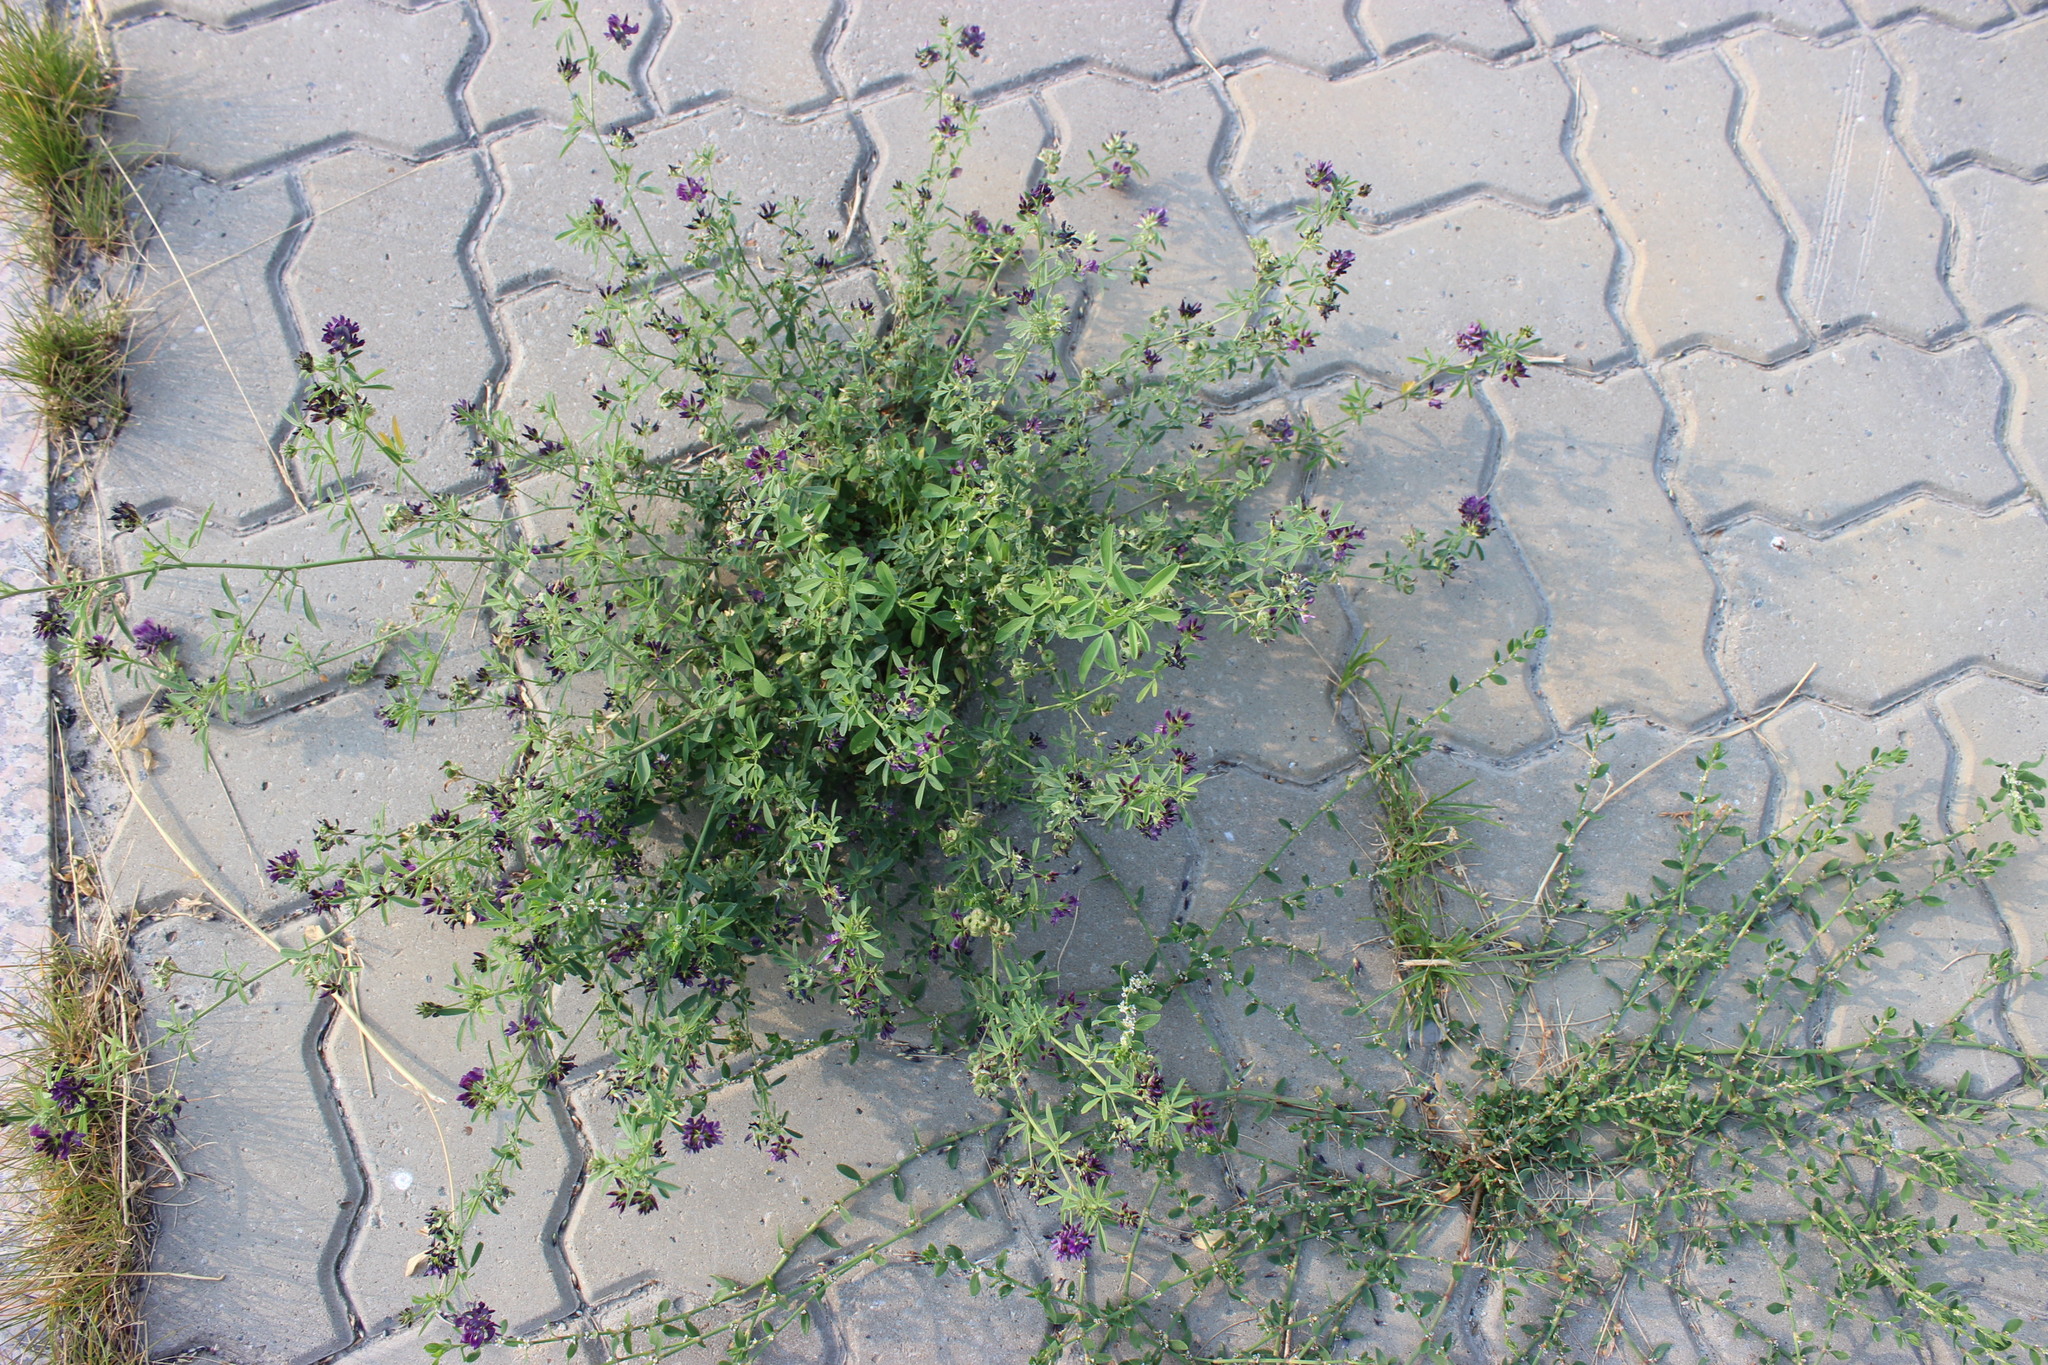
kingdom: Plantae
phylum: Tracheophyta
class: Magnoliopsida
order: Caryophyllales
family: Polygonaceae
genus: Polygonum
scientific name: Polygonum
